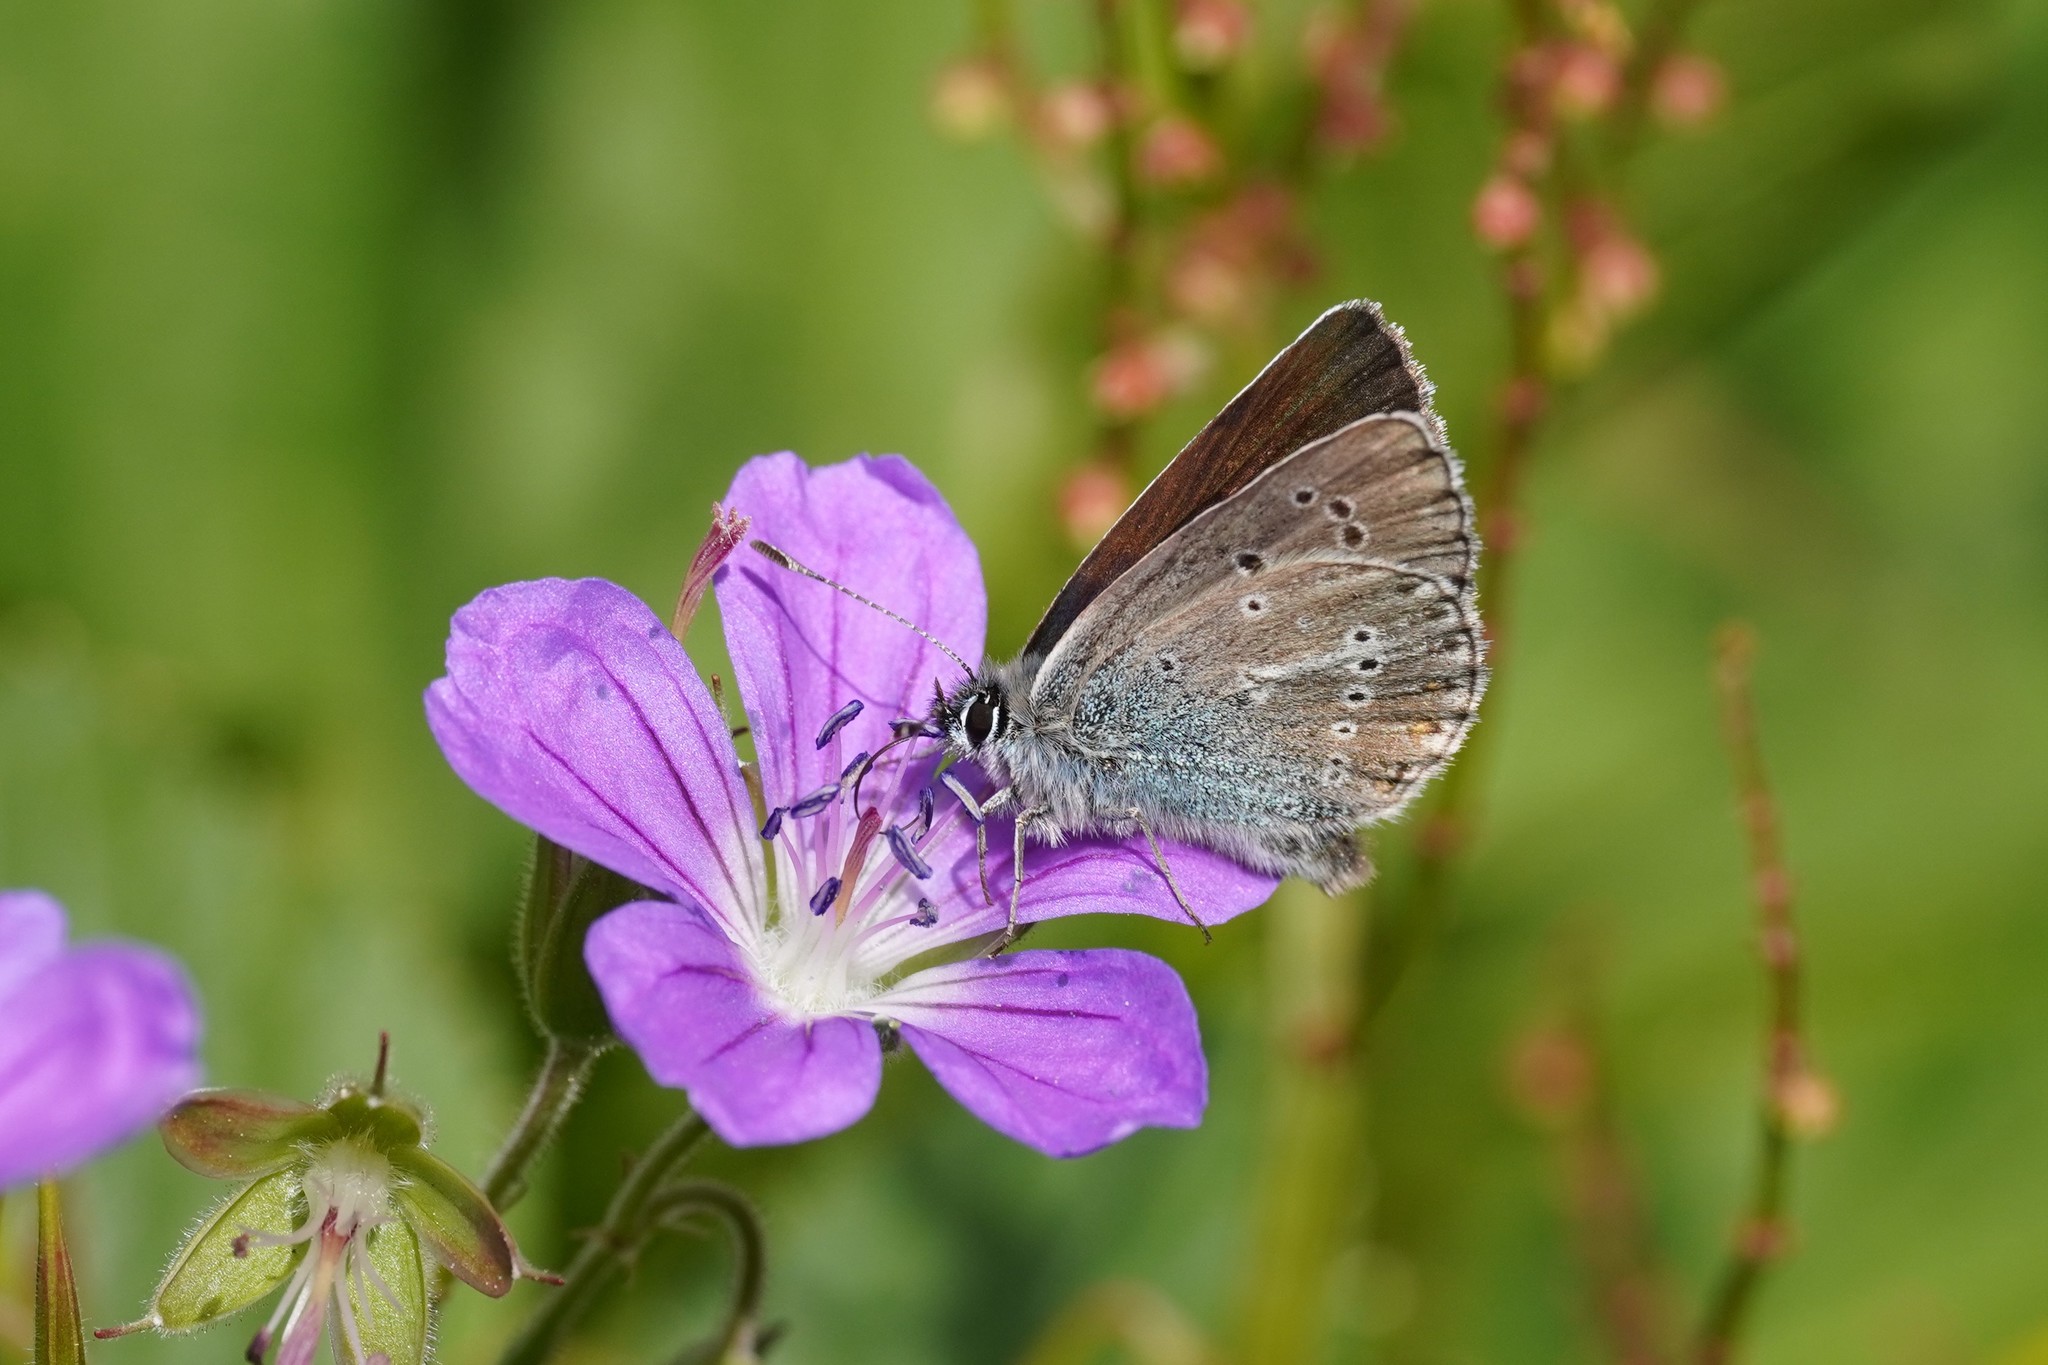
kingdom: Animalia
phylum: Arthropoda
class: Insecta
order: Lepidoptera
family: Lycaenidae
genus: Eumedonia
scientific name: Eumedonia eumedon
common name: Geranium argus
